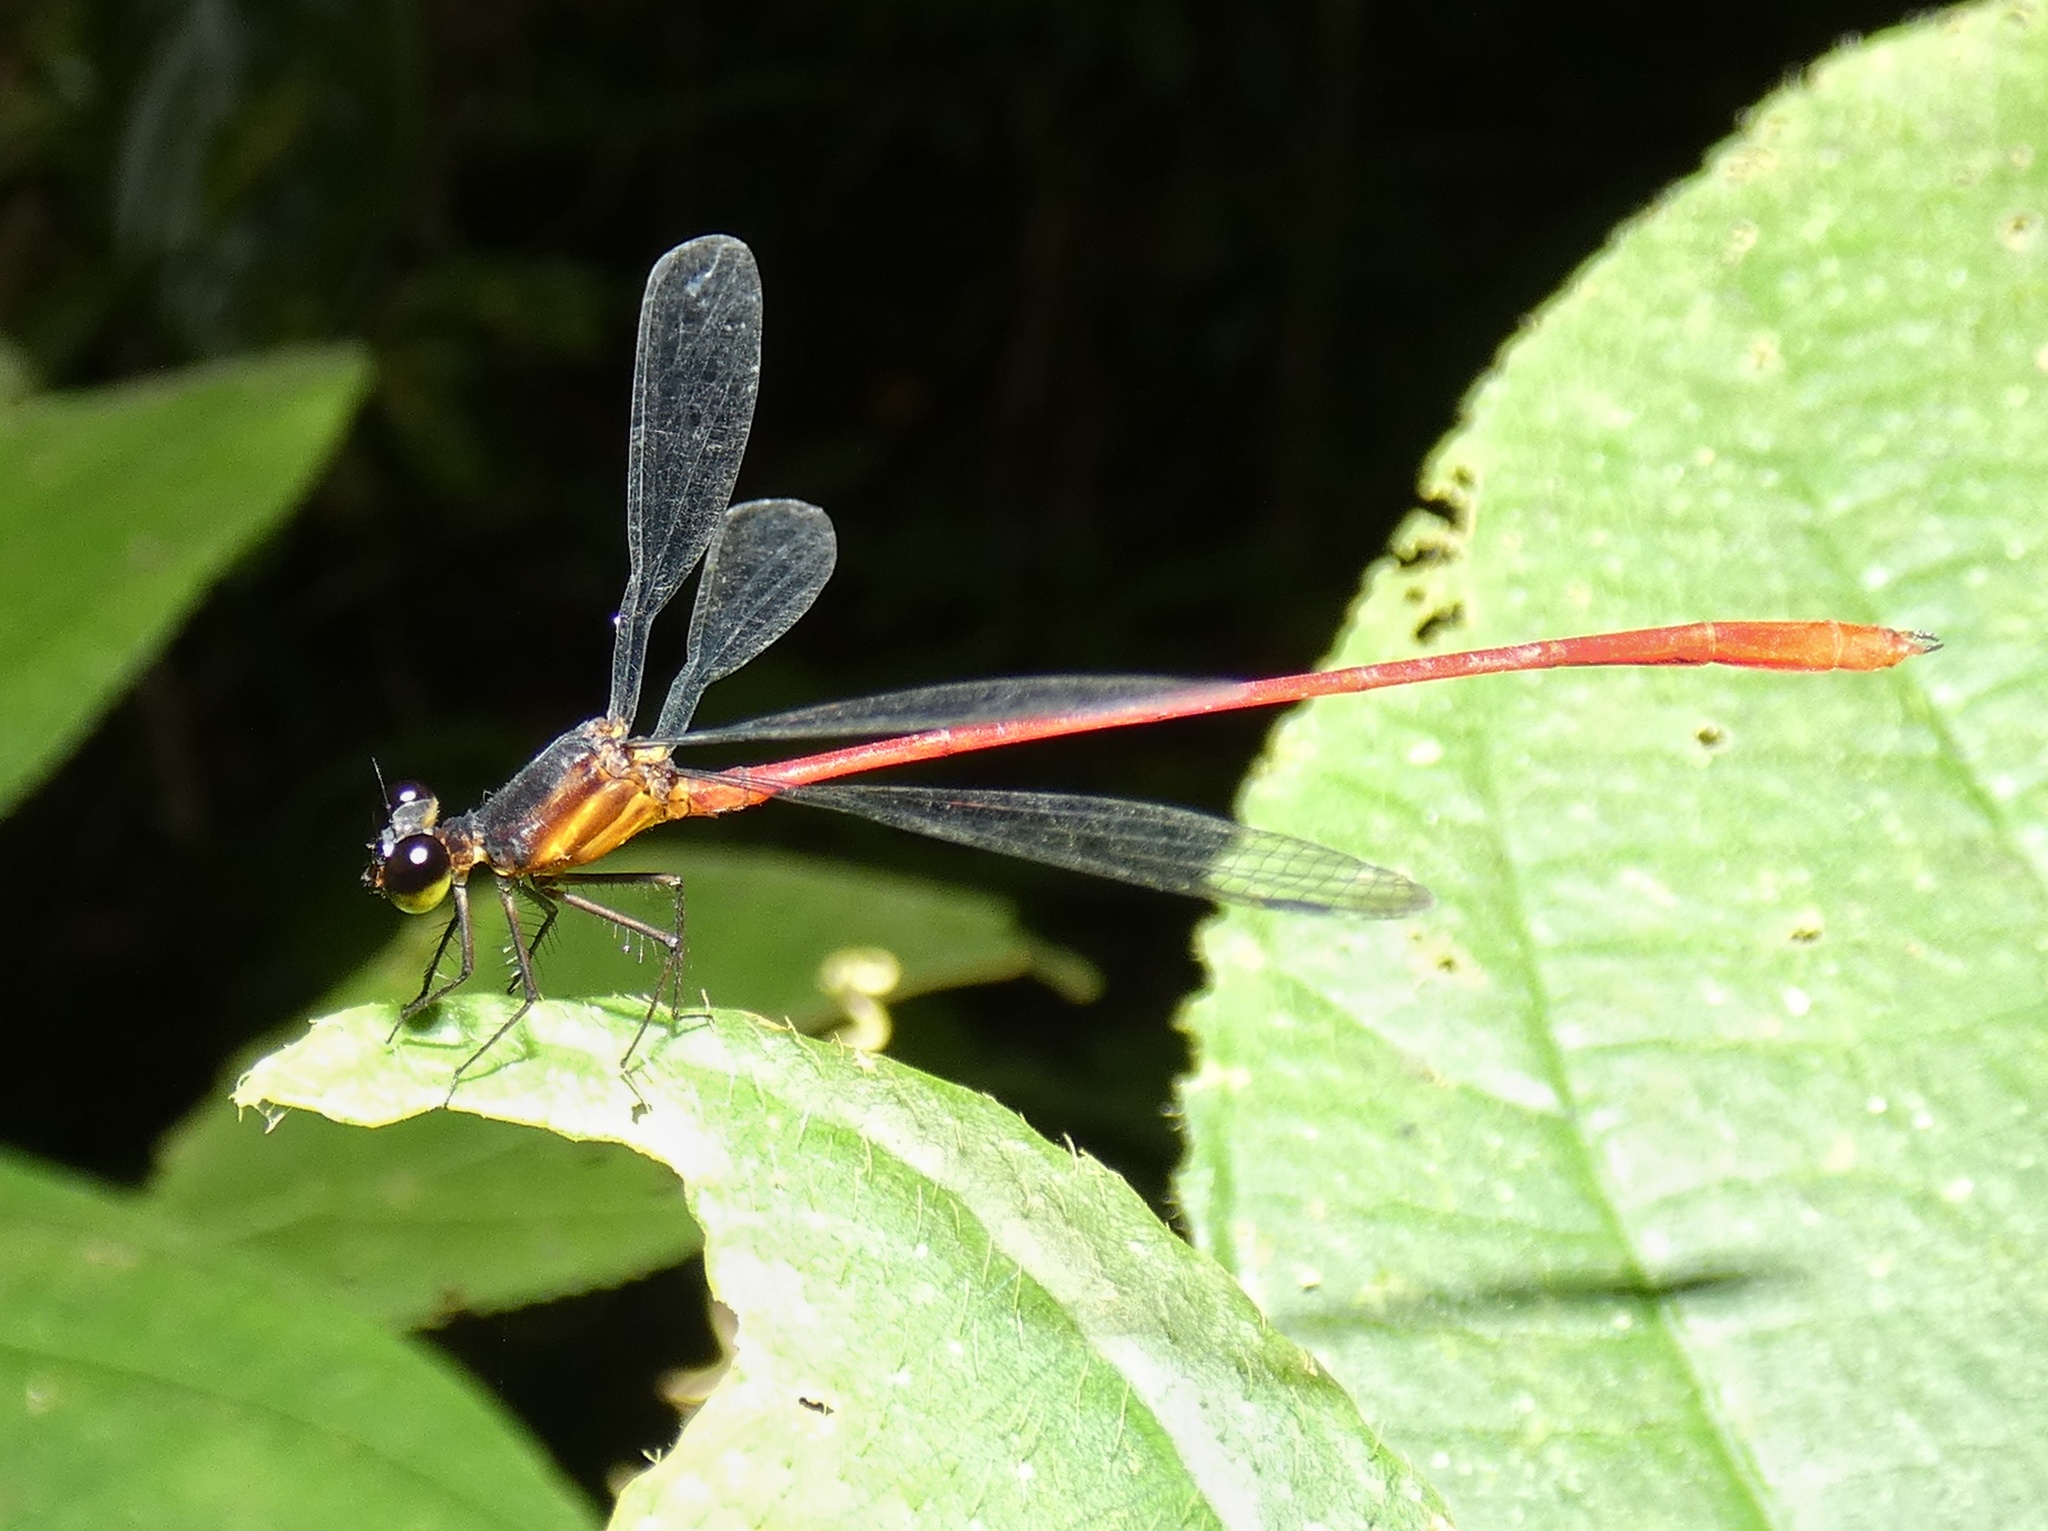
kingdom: Animalia
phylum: Arthropoda
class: Insecta
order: Odonata
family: Heteragrionidae
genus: Heteragrion
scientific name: Heteragrion erythrogastrum
